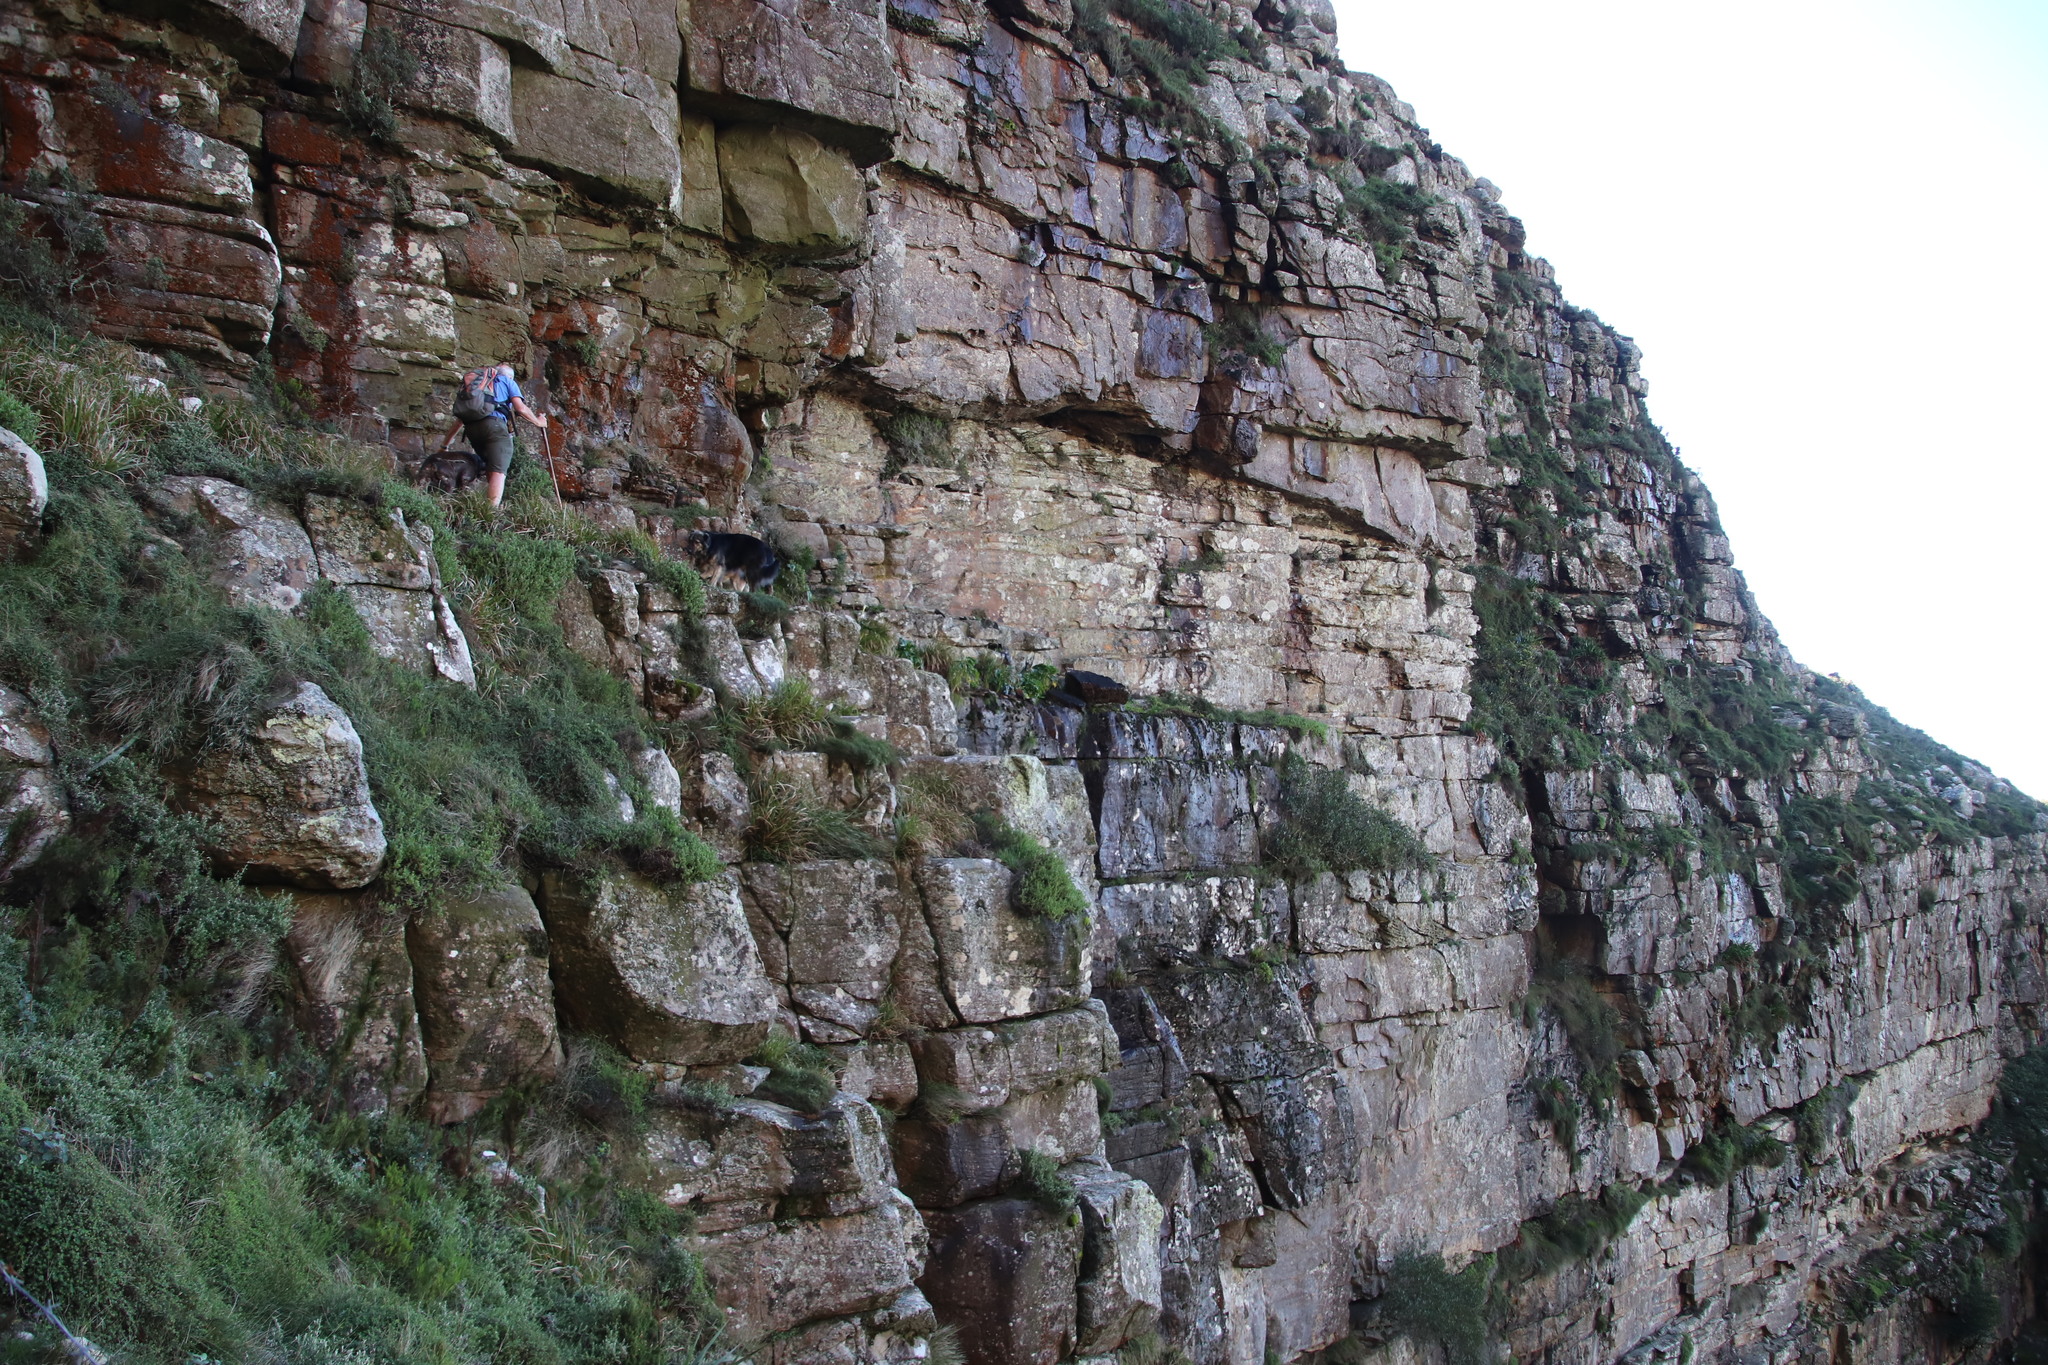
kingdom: Plantae
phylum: Tracheophyta
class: Liliopsida
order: Alismatales
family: Araceae
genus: Zantedeschia
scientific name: Zantedeschia aethiopica
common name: Altar-lily
